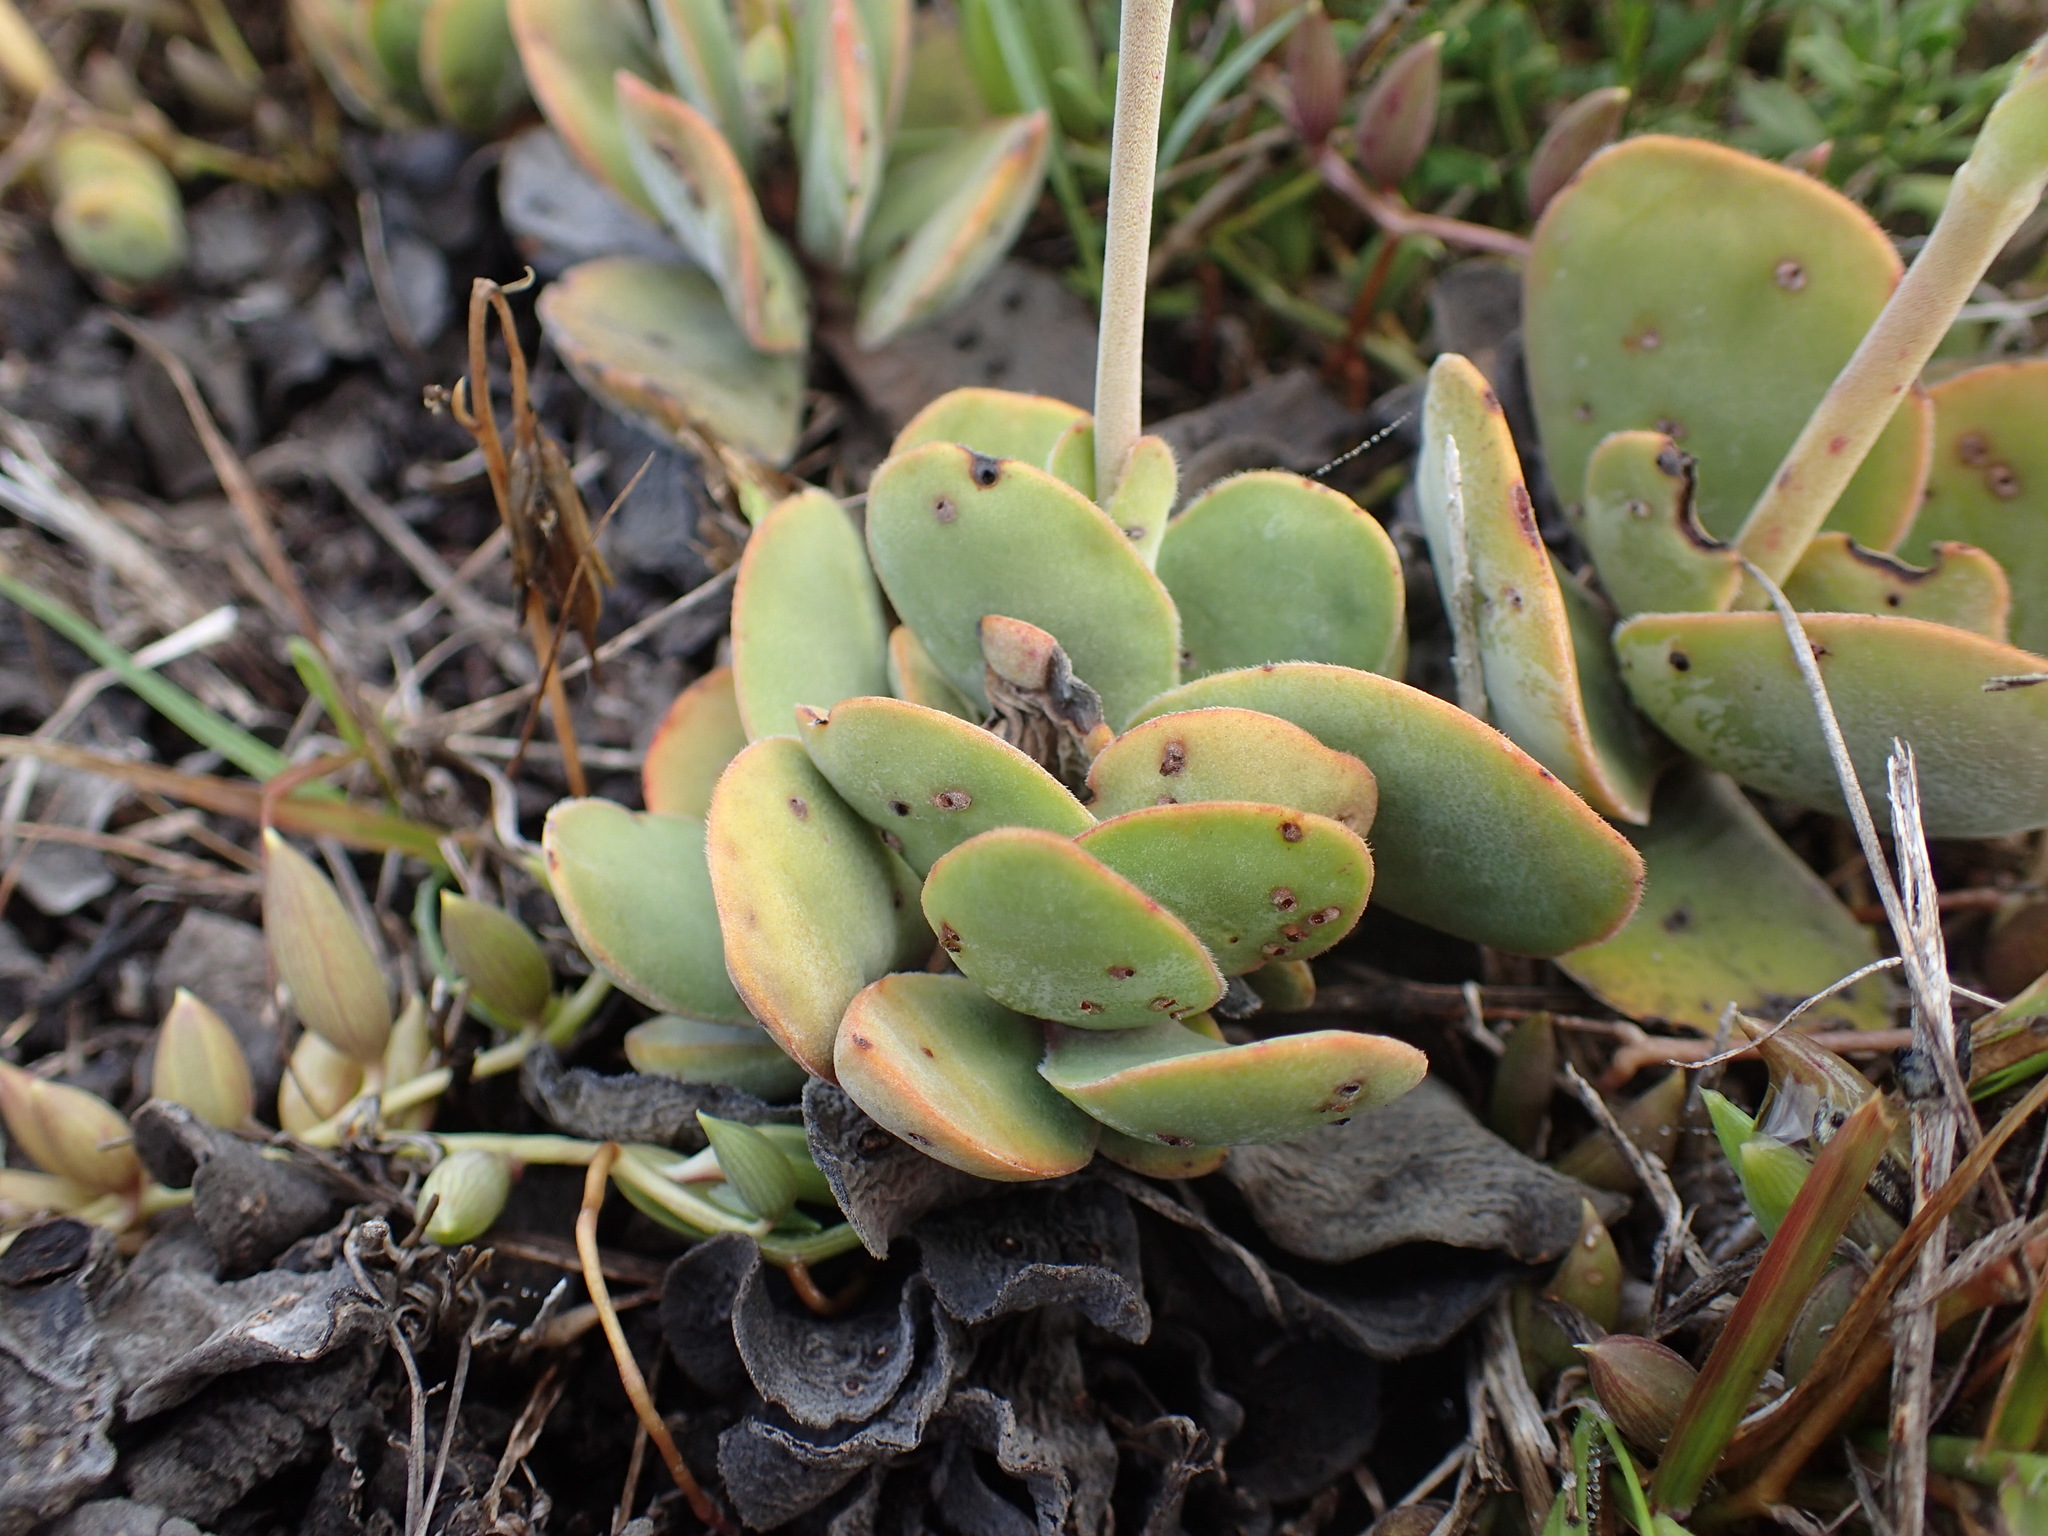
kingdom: Plantae
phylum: Tracheophyta
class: Magnoliopsida
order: Saxifragales
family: Crassulaceae
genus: Crassula
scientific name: Crassula cotyledonis
